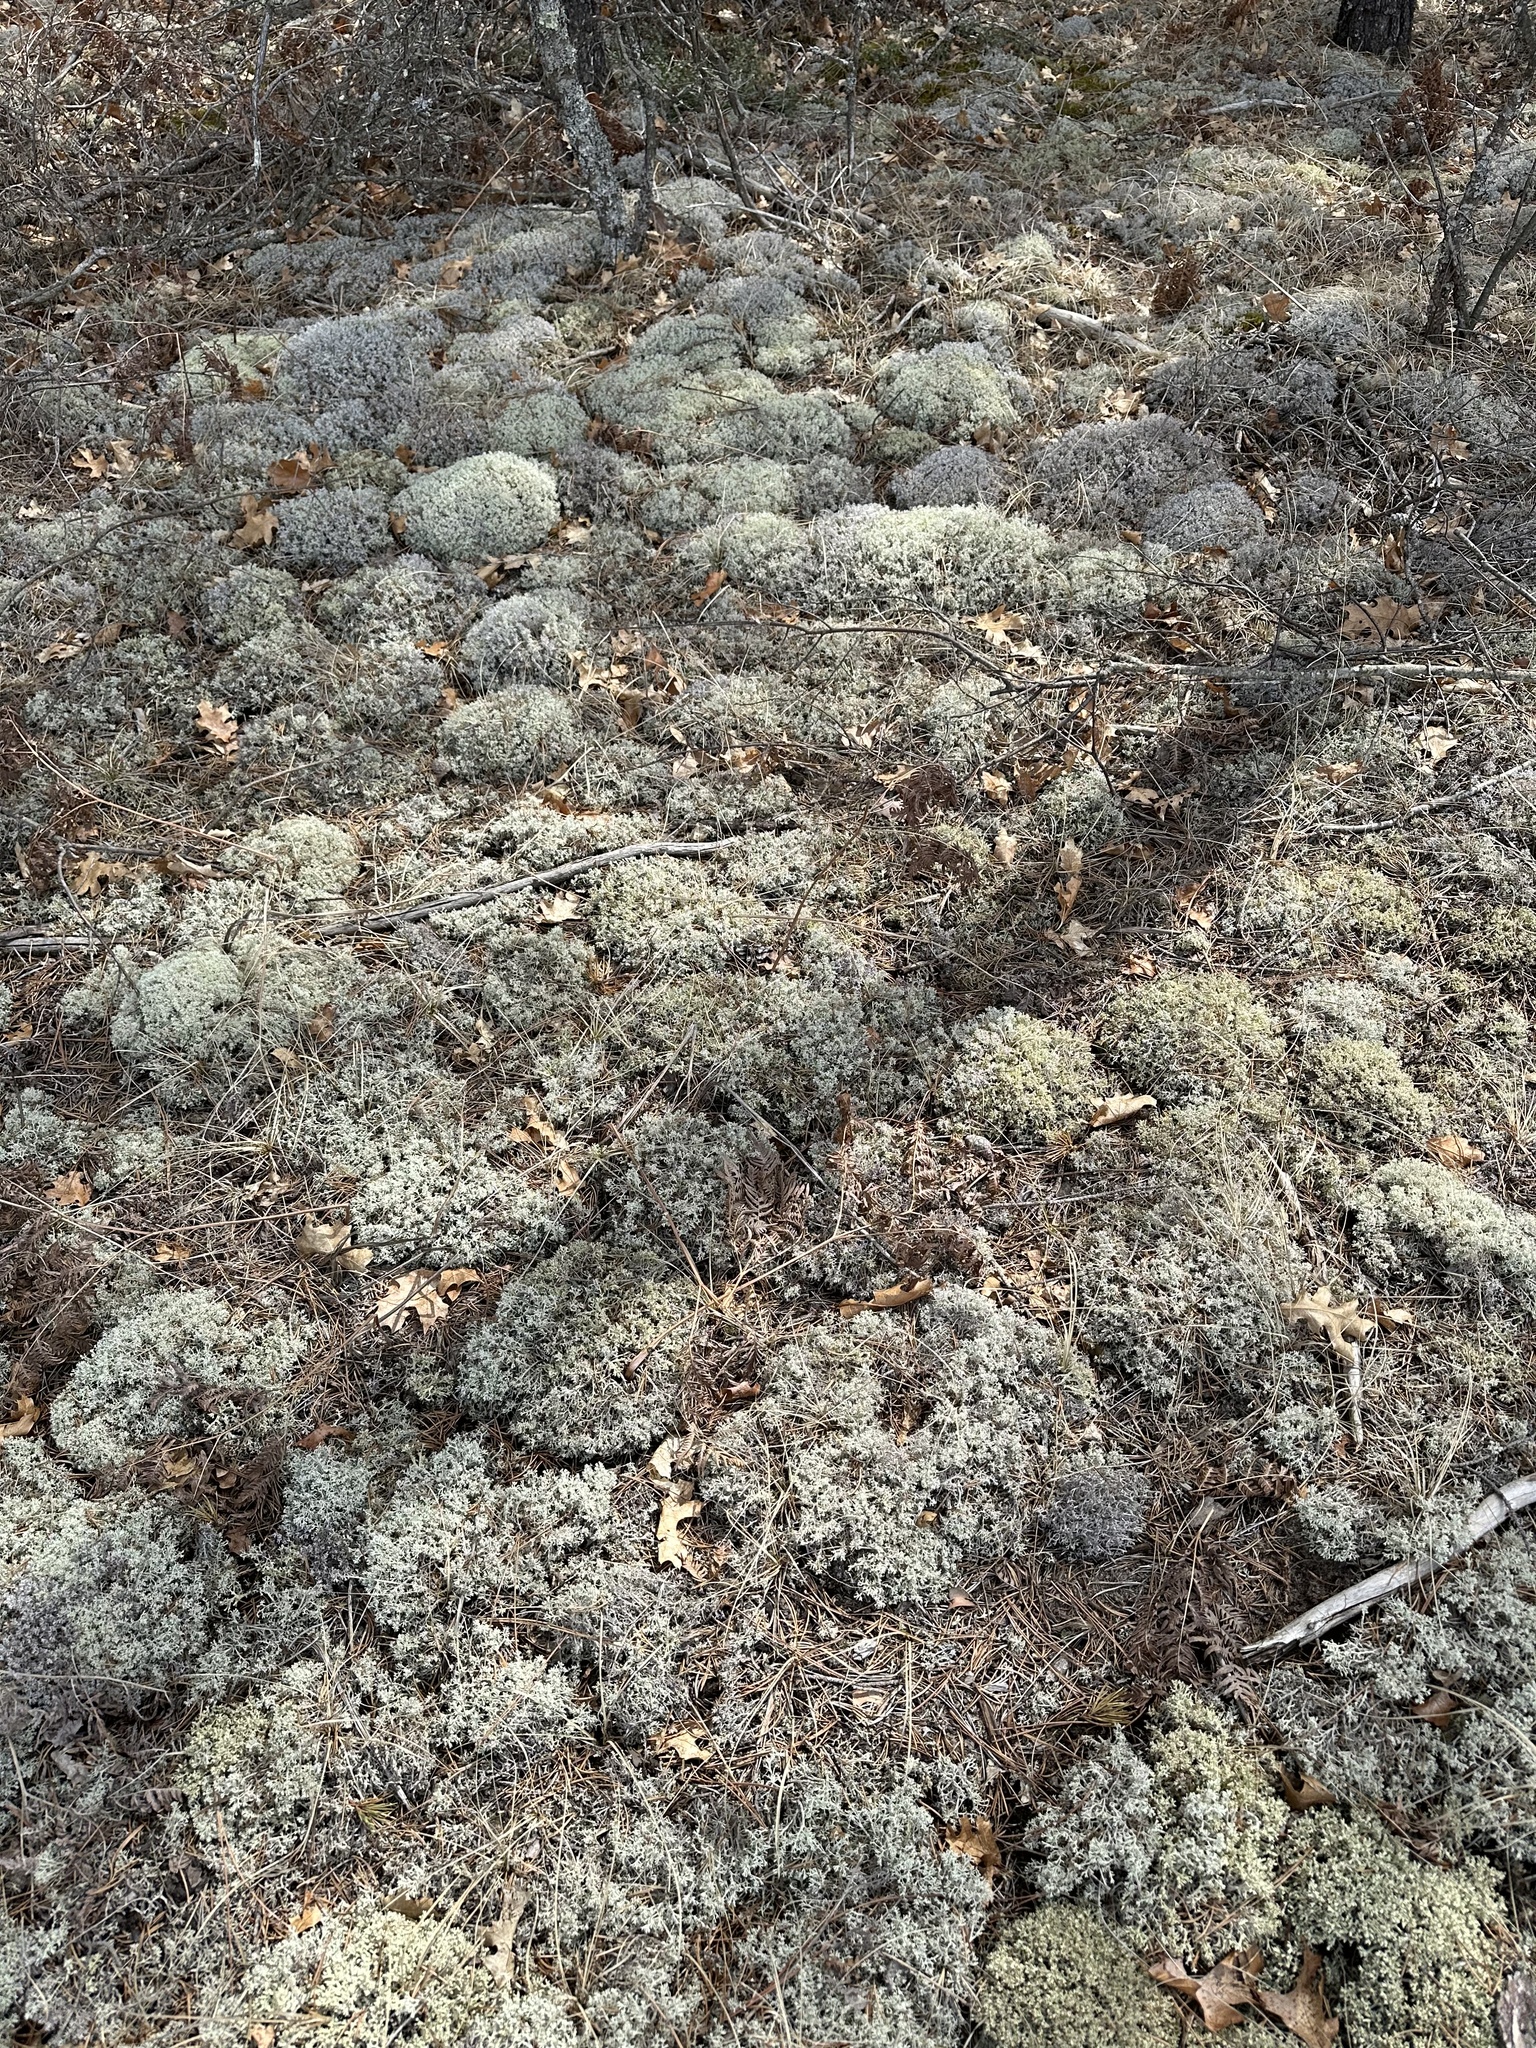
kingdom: Fungi
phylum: Ascomycota
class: Lecanoromycetes
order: Lecanorales
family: Cladoniaceae
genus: Cladonia
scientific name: Cladonia arbuscula
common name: Reindeer lichen
